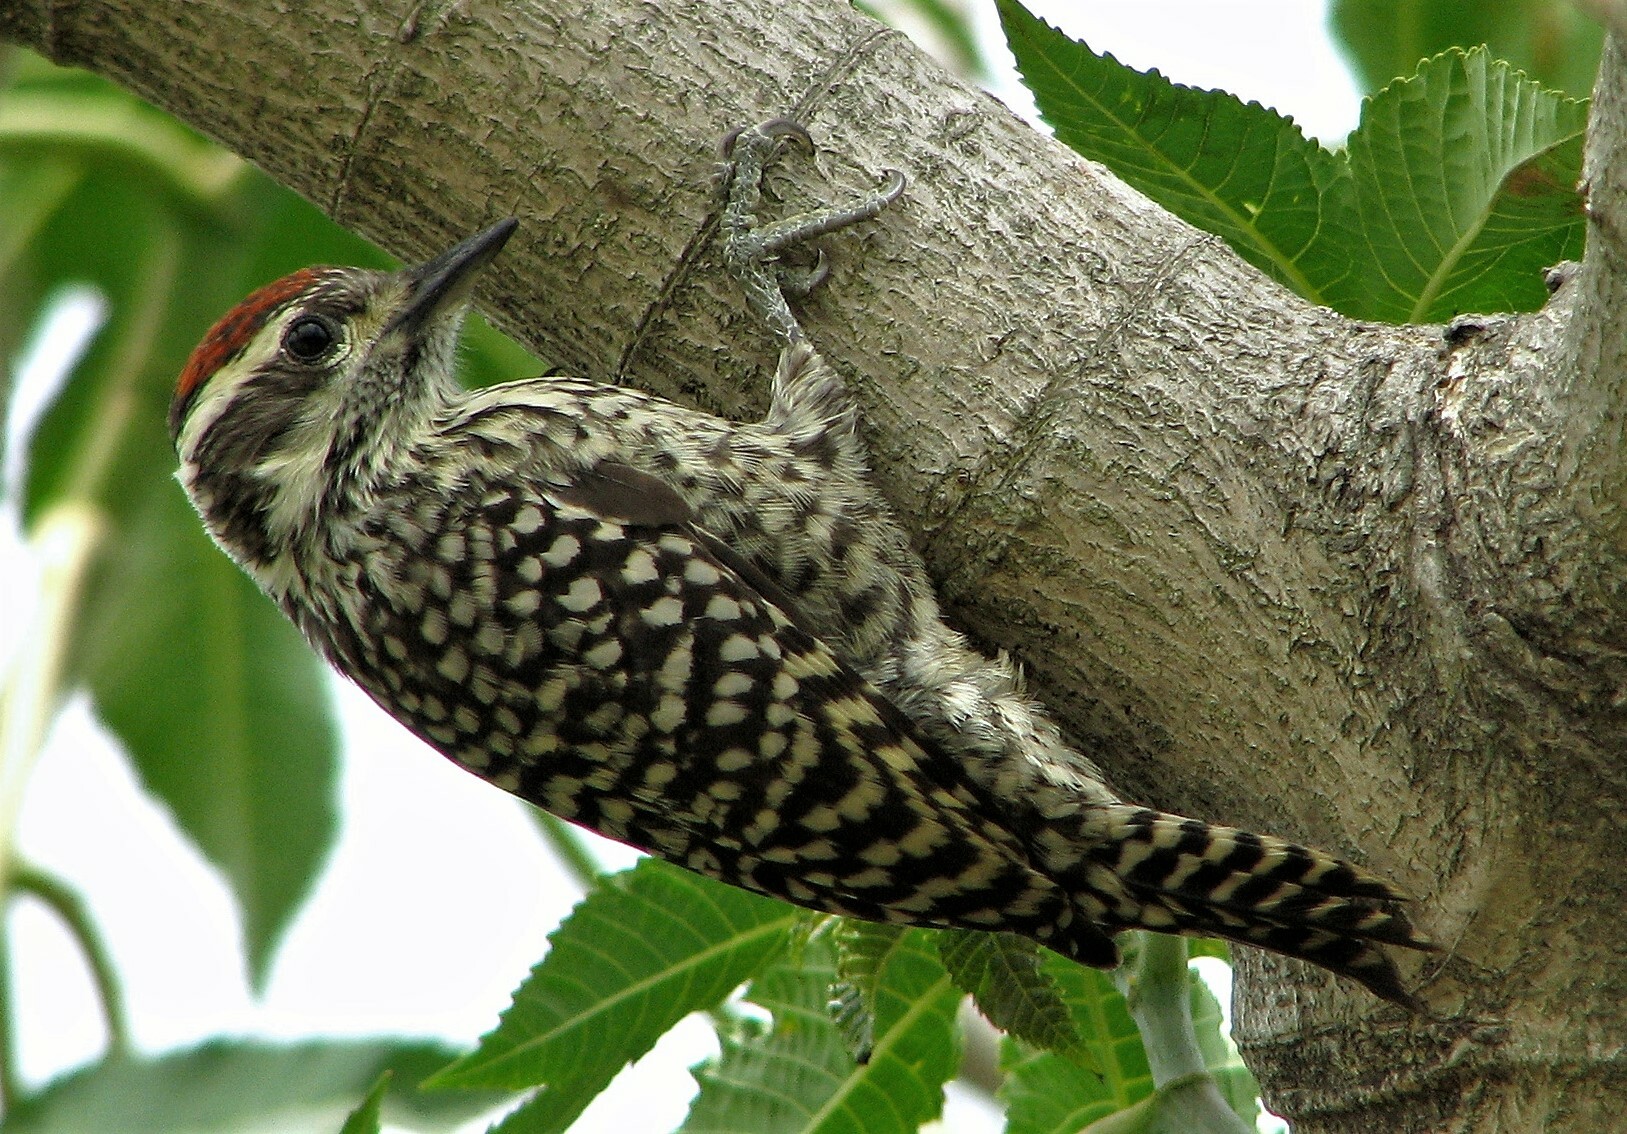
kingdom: Animalia
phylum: Chordata
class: Aves
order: Piciformes
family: Picidae
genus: Veniliornis
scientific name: Veniliornis mixtus
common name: Checkered woodpecker
